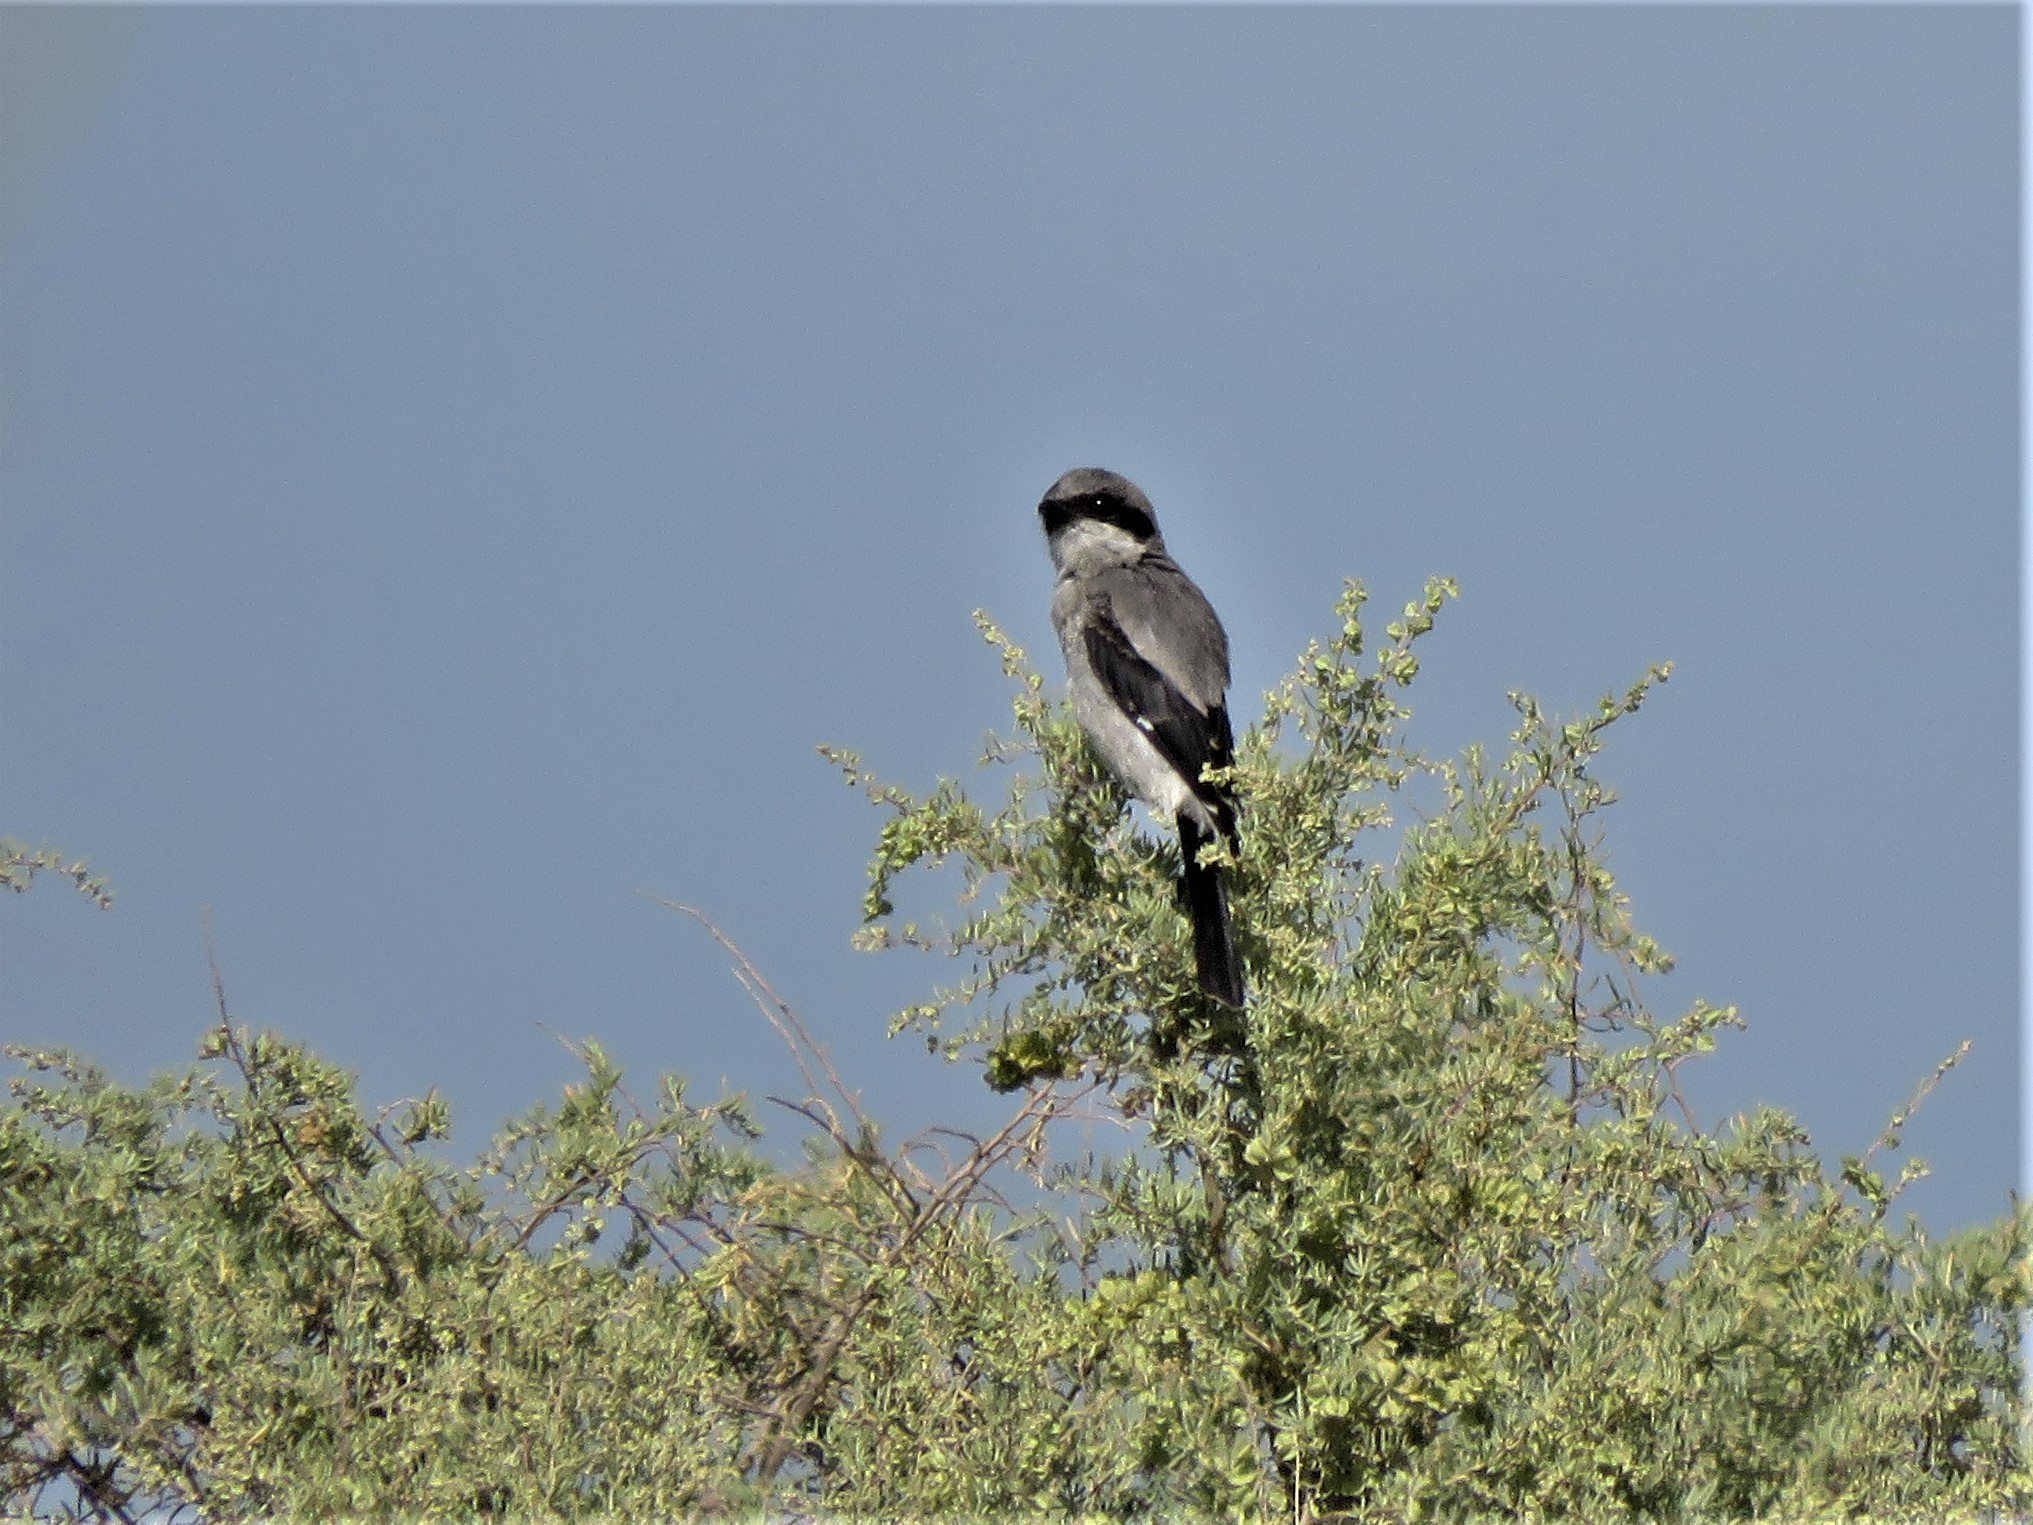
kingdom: Animalia
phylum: Chordata
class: Aves
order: Passeriformes
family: Laniidae
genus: Lanius
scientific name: Lanius ludovicianus
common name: Loggerhead shrike
